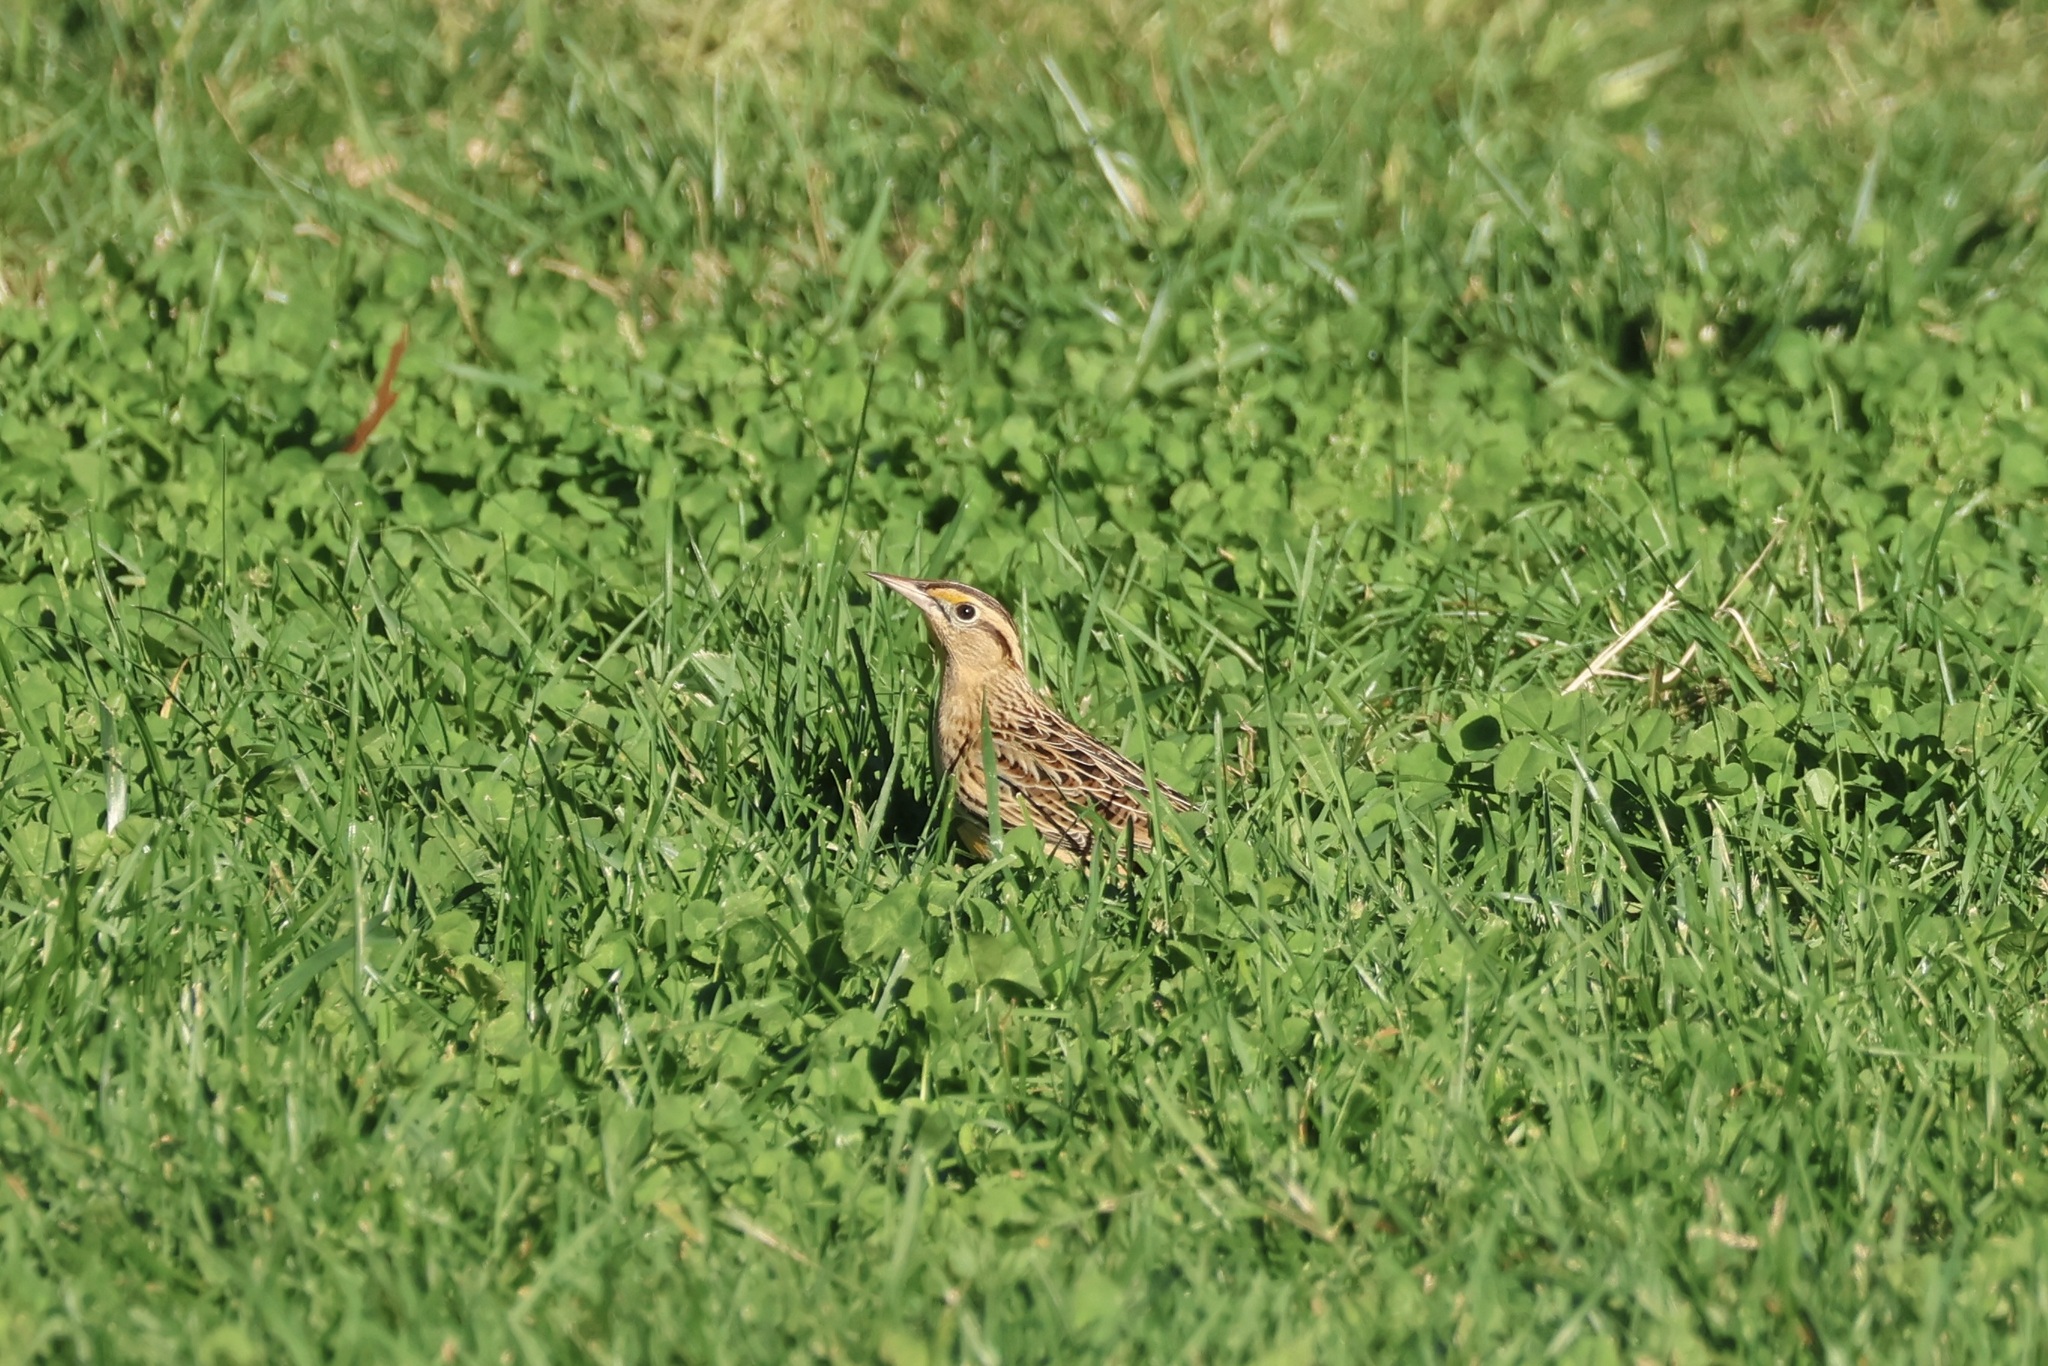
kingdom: Animalia
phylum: Chordata
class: Aves
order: Passeriformes
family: Icteridae
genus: Sturnella
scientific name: Sturnella magna
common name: Eastern meadowlark
